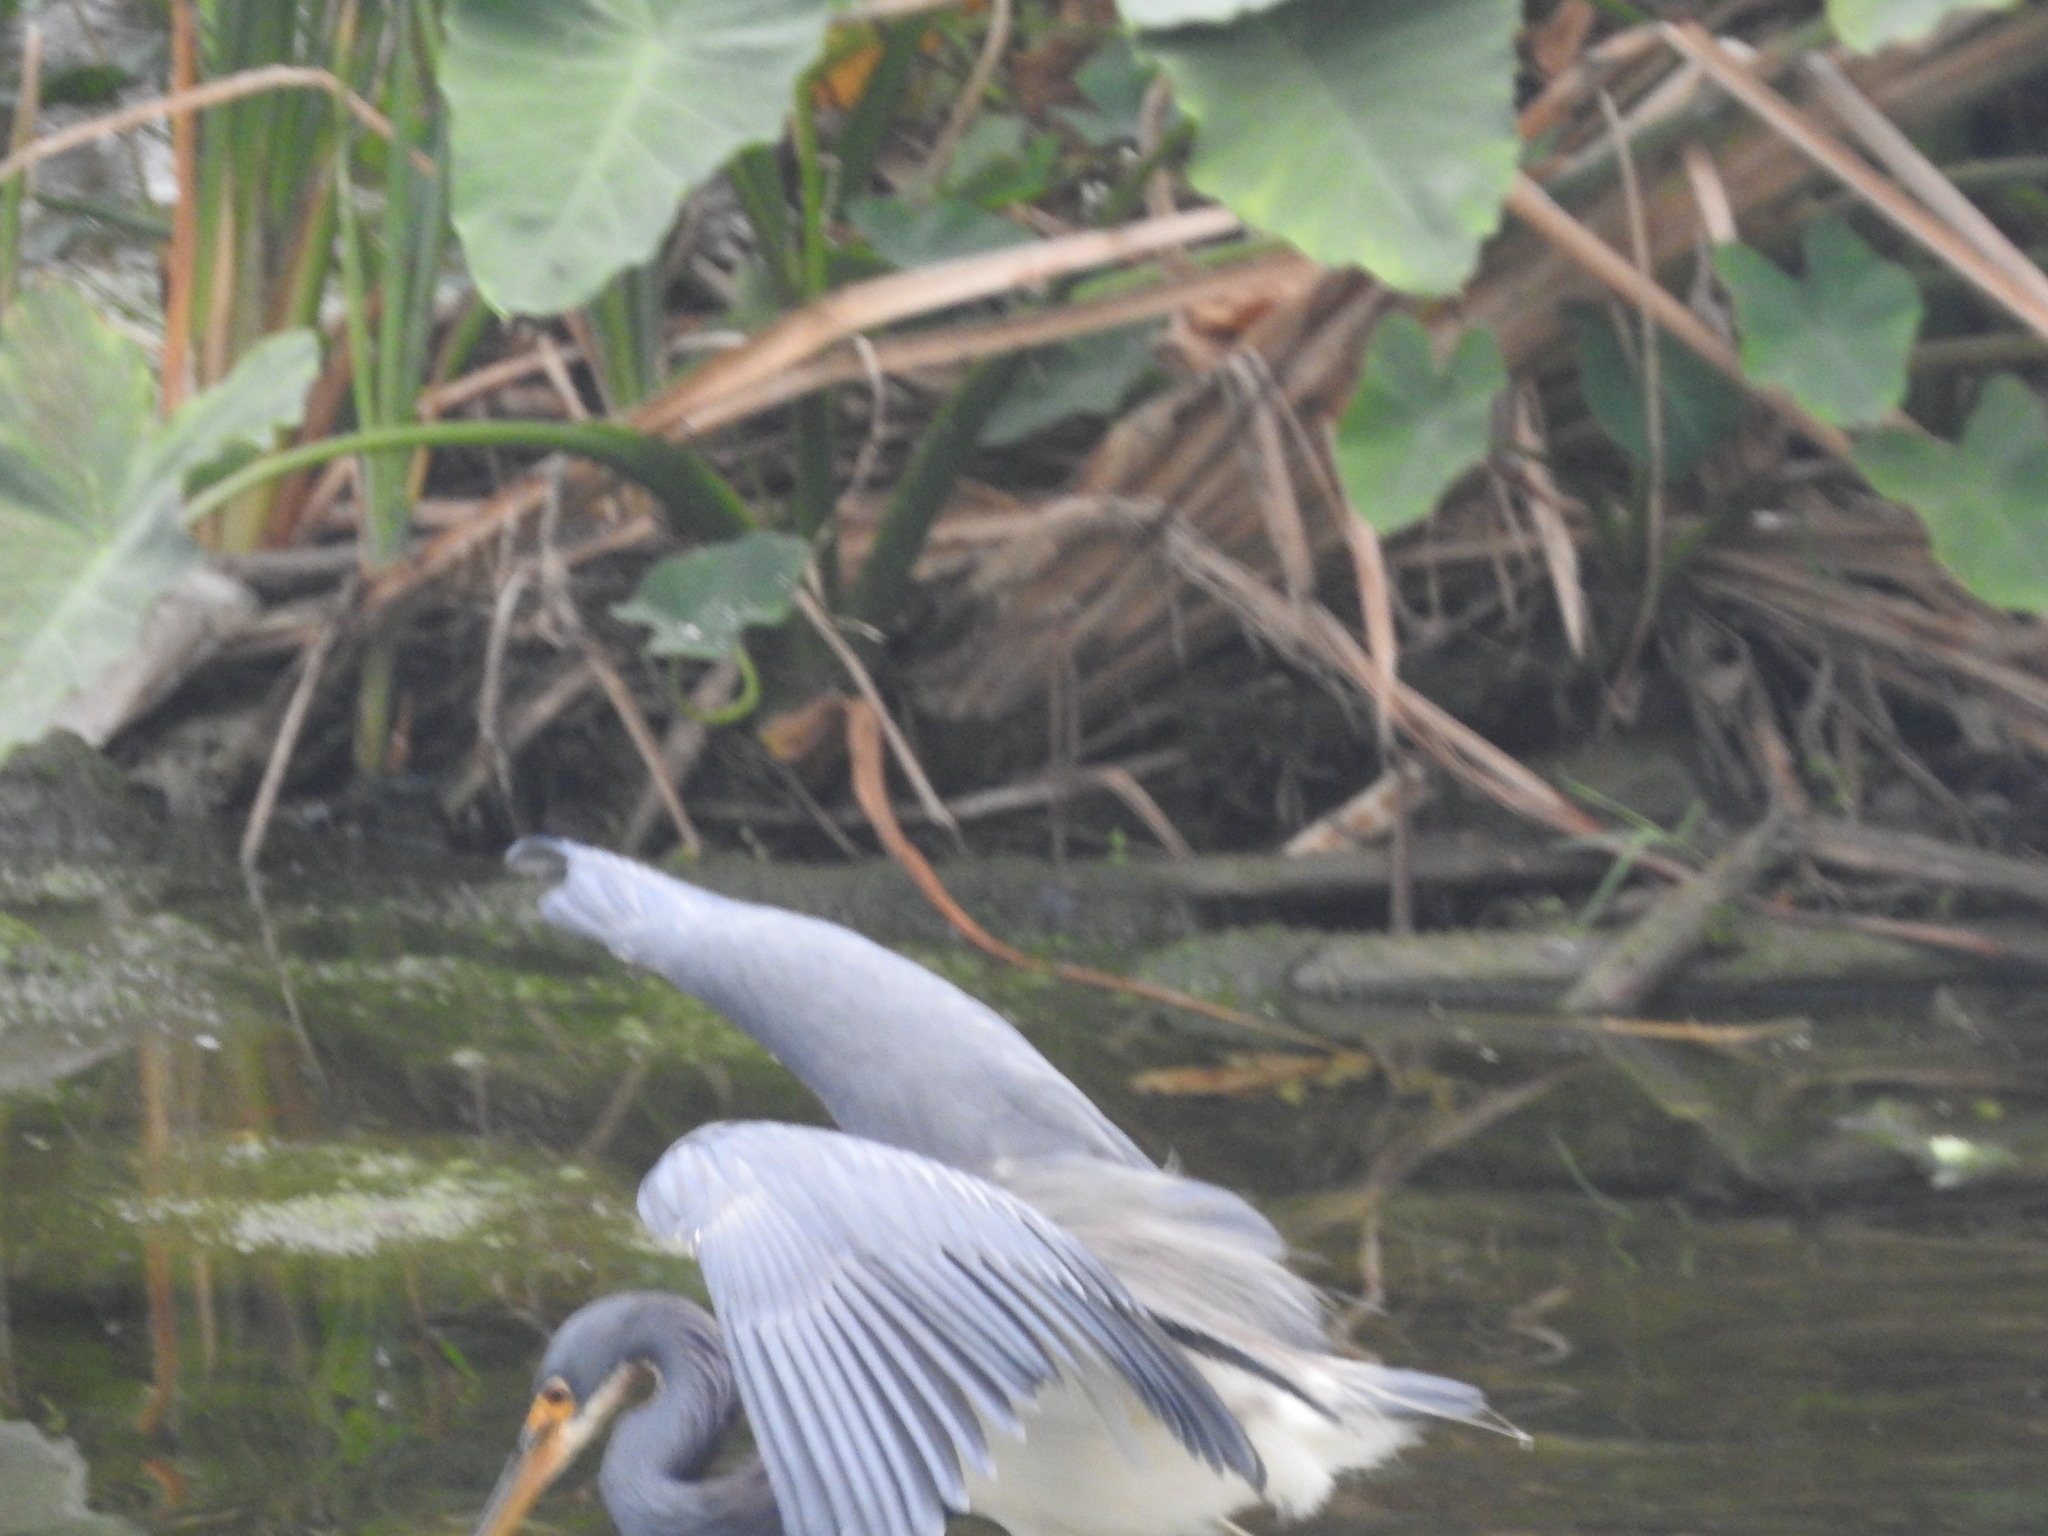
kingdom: Animalia
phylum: Chordata
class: Aves
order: Pelecaniformes
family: Ardeidae
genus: Egretta
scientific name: Egretta tricolor
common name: Tricolored heron
